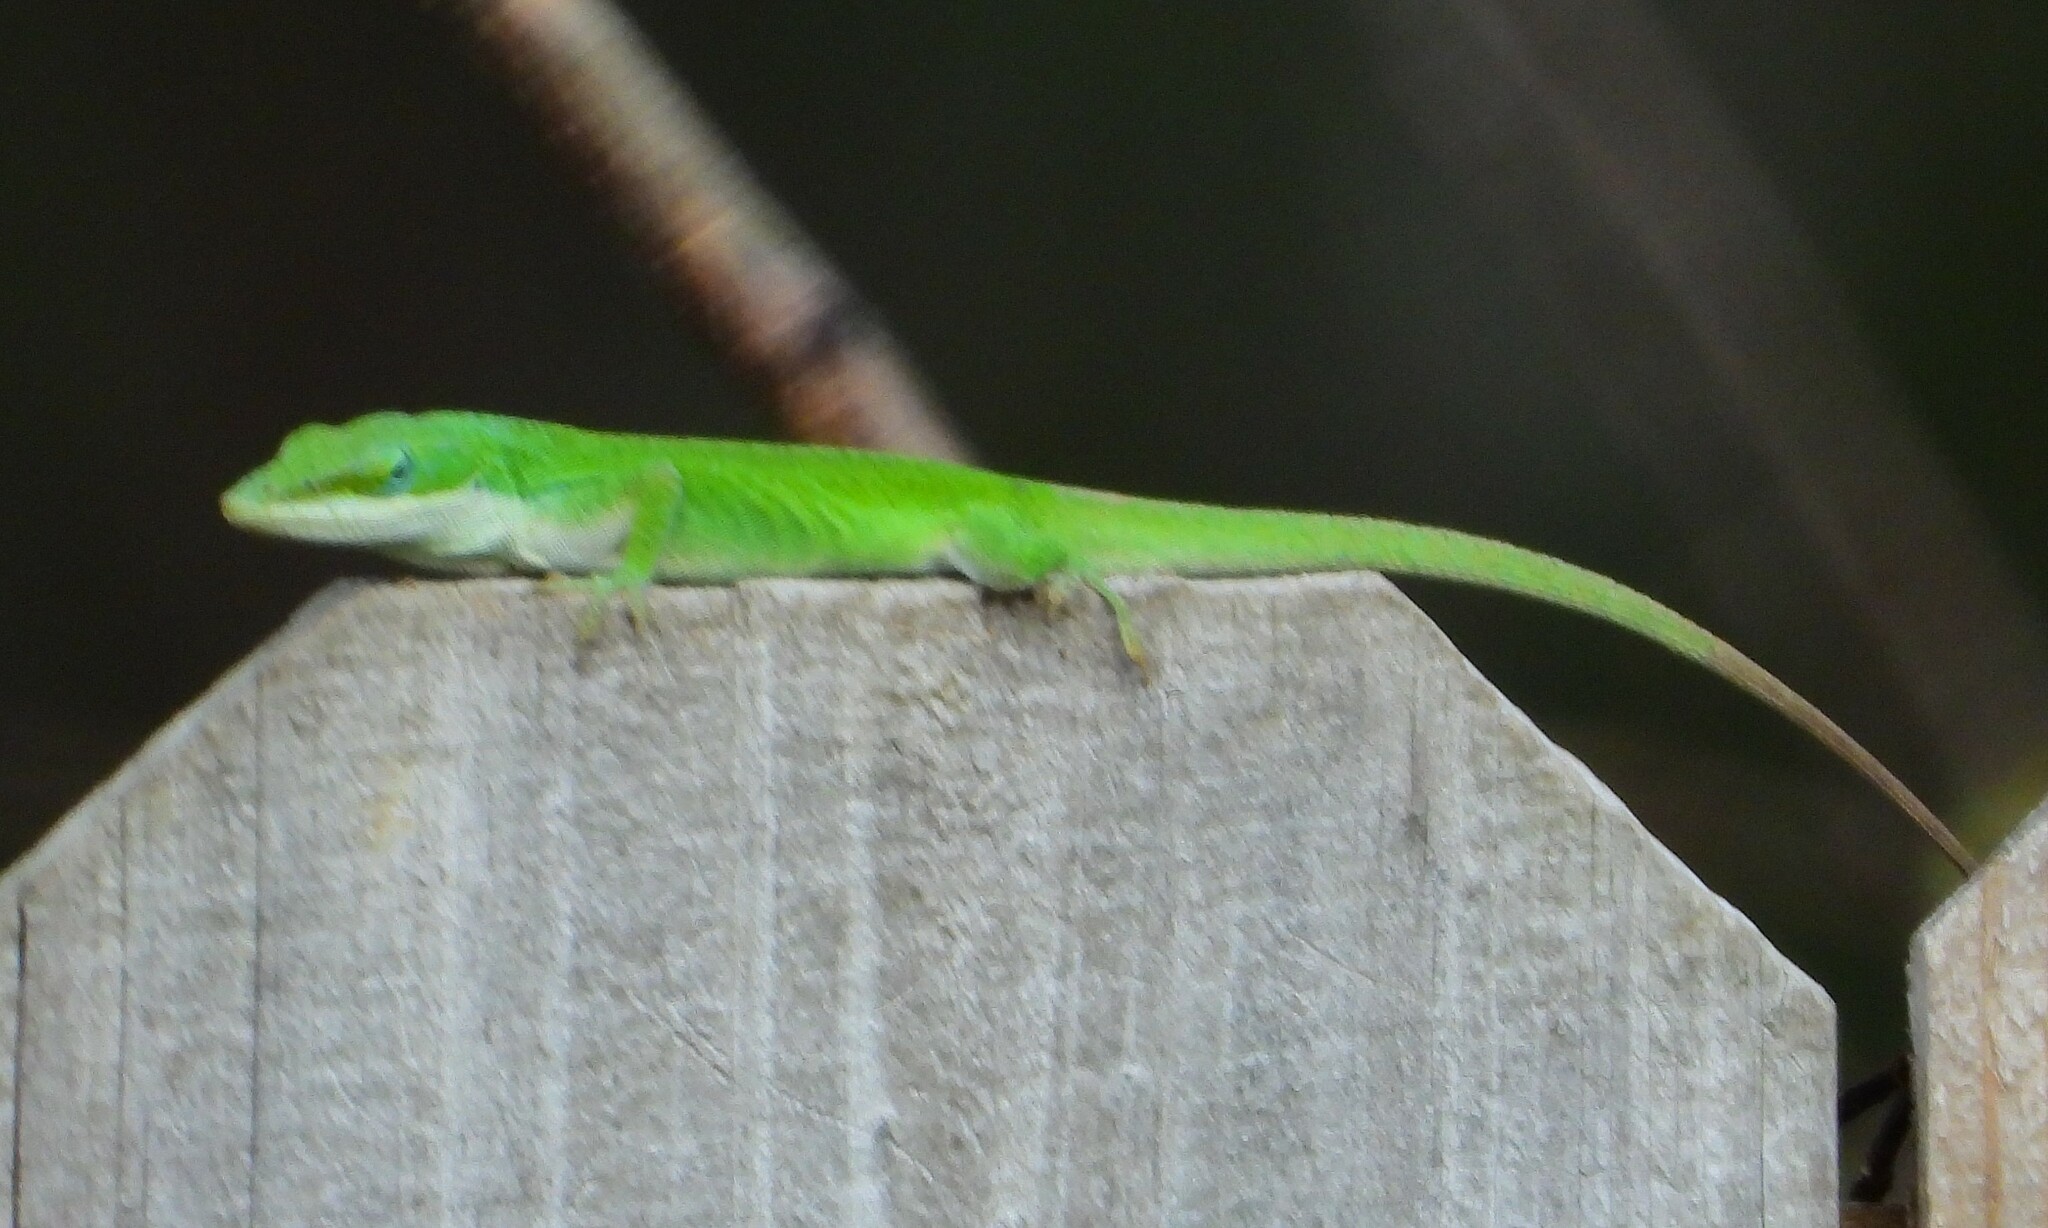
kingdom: Animalia
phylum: Chordata
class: Squamata
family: Dactyloidae
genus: Anolis
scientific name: Anolis carolinensis
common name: Green anole
